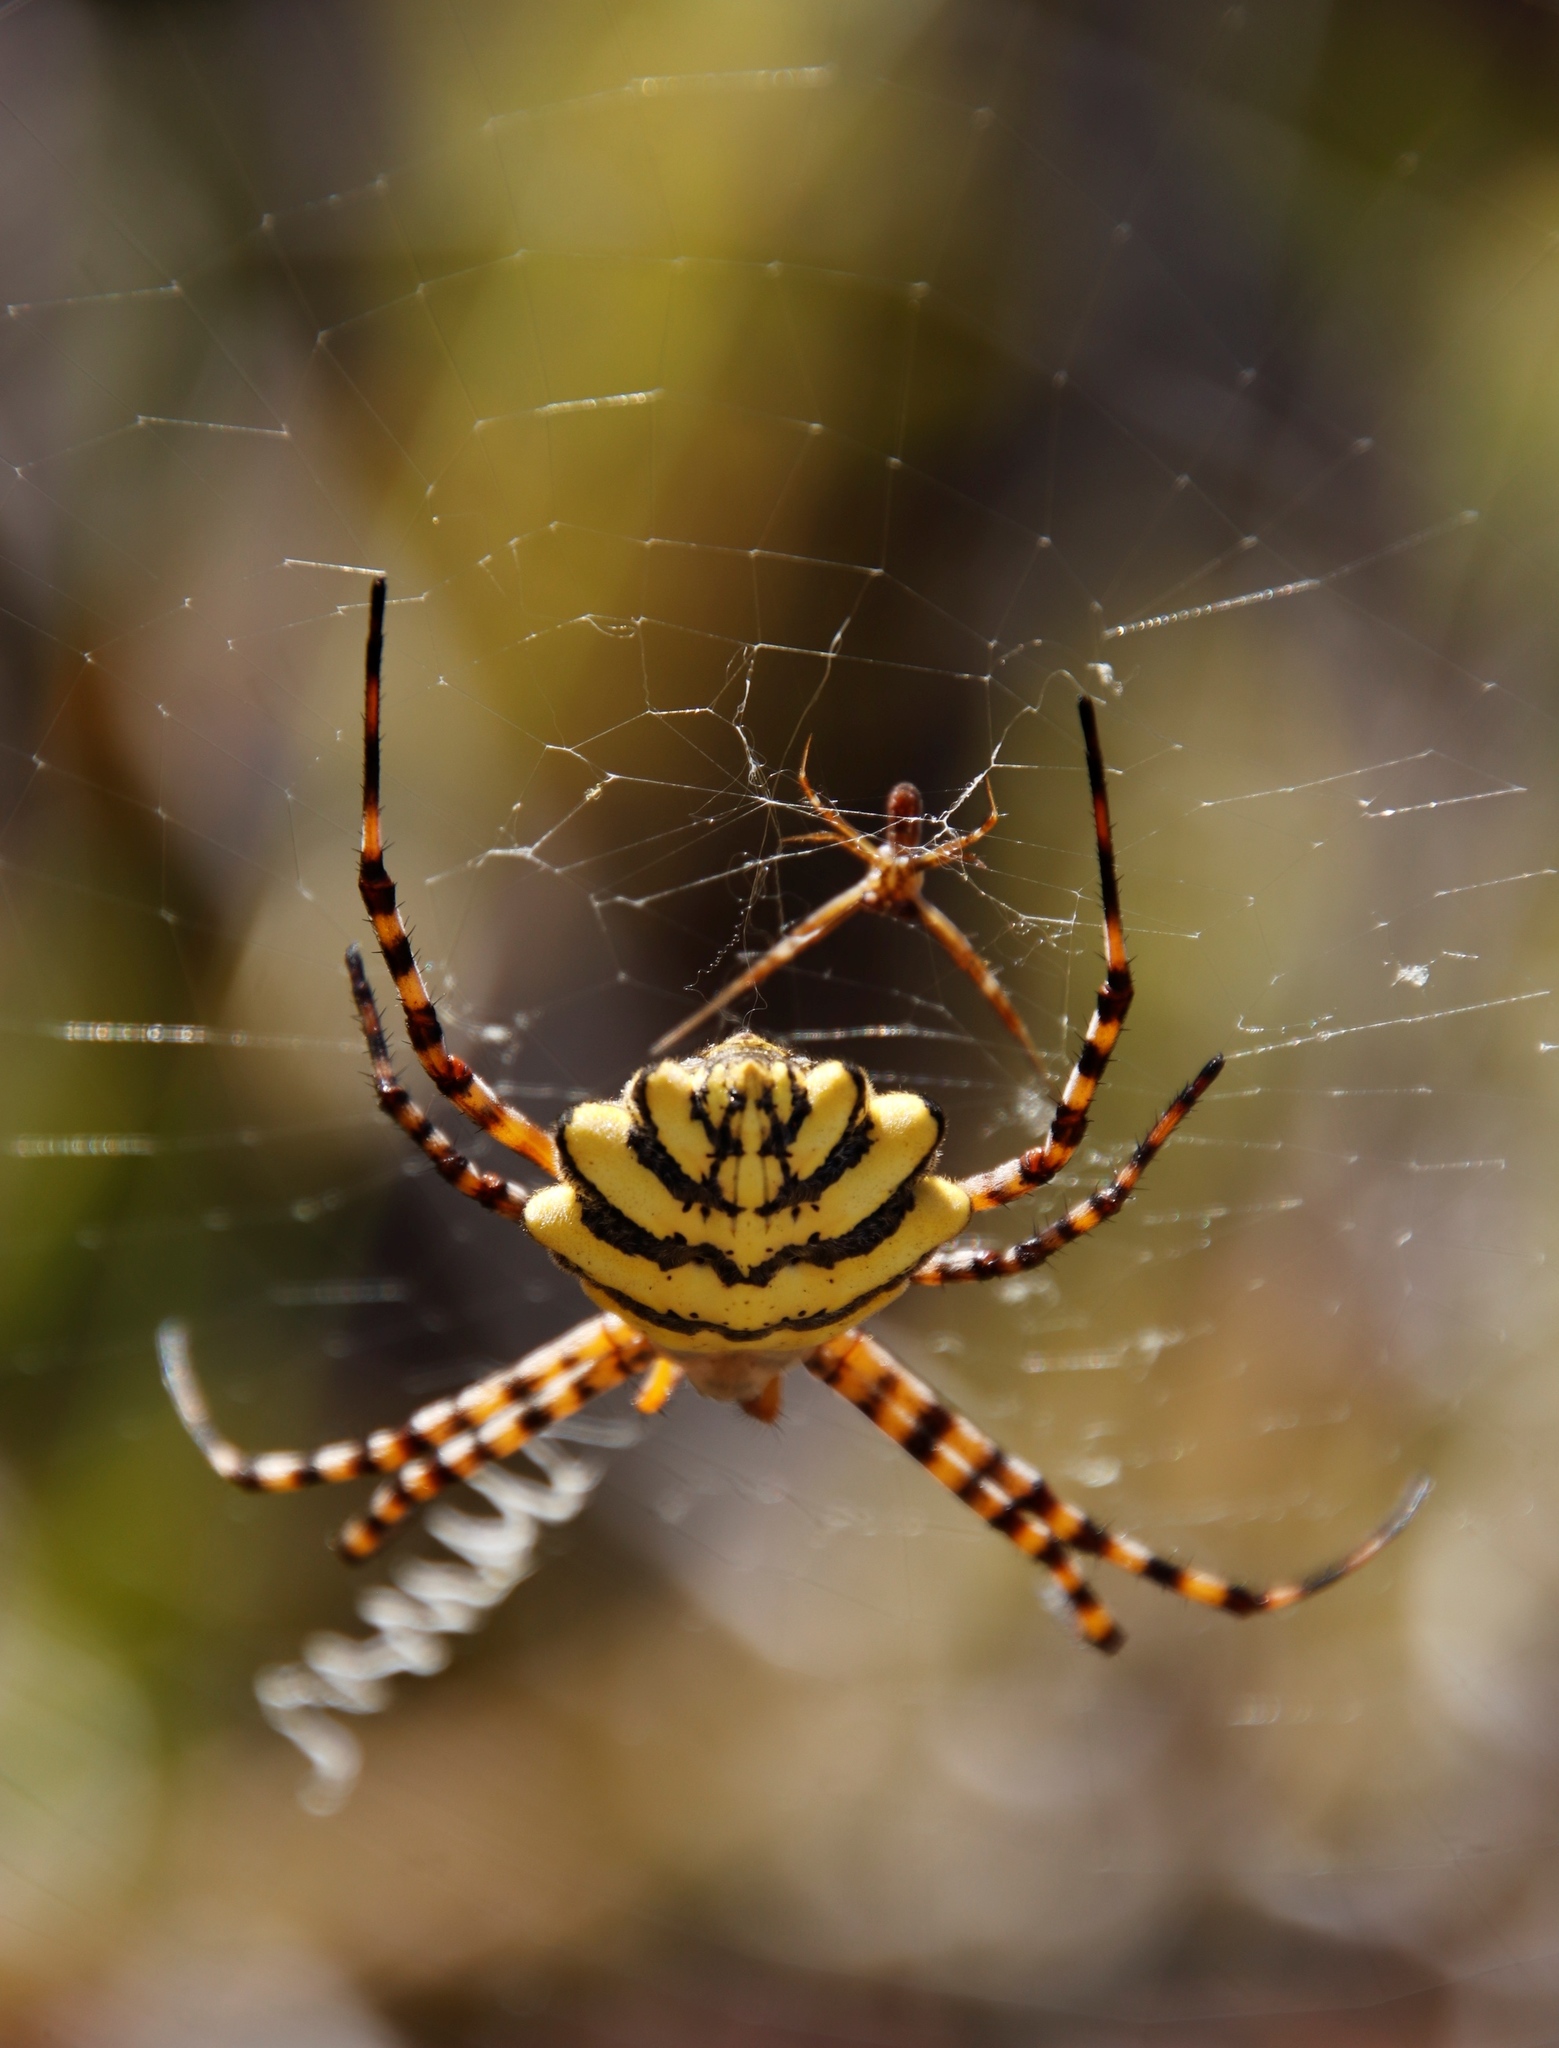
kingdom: Animalia
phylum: Arthropoda
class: Arachnida
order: Araneae
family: Araneidae
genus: Argiope
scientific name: Argiope australis
